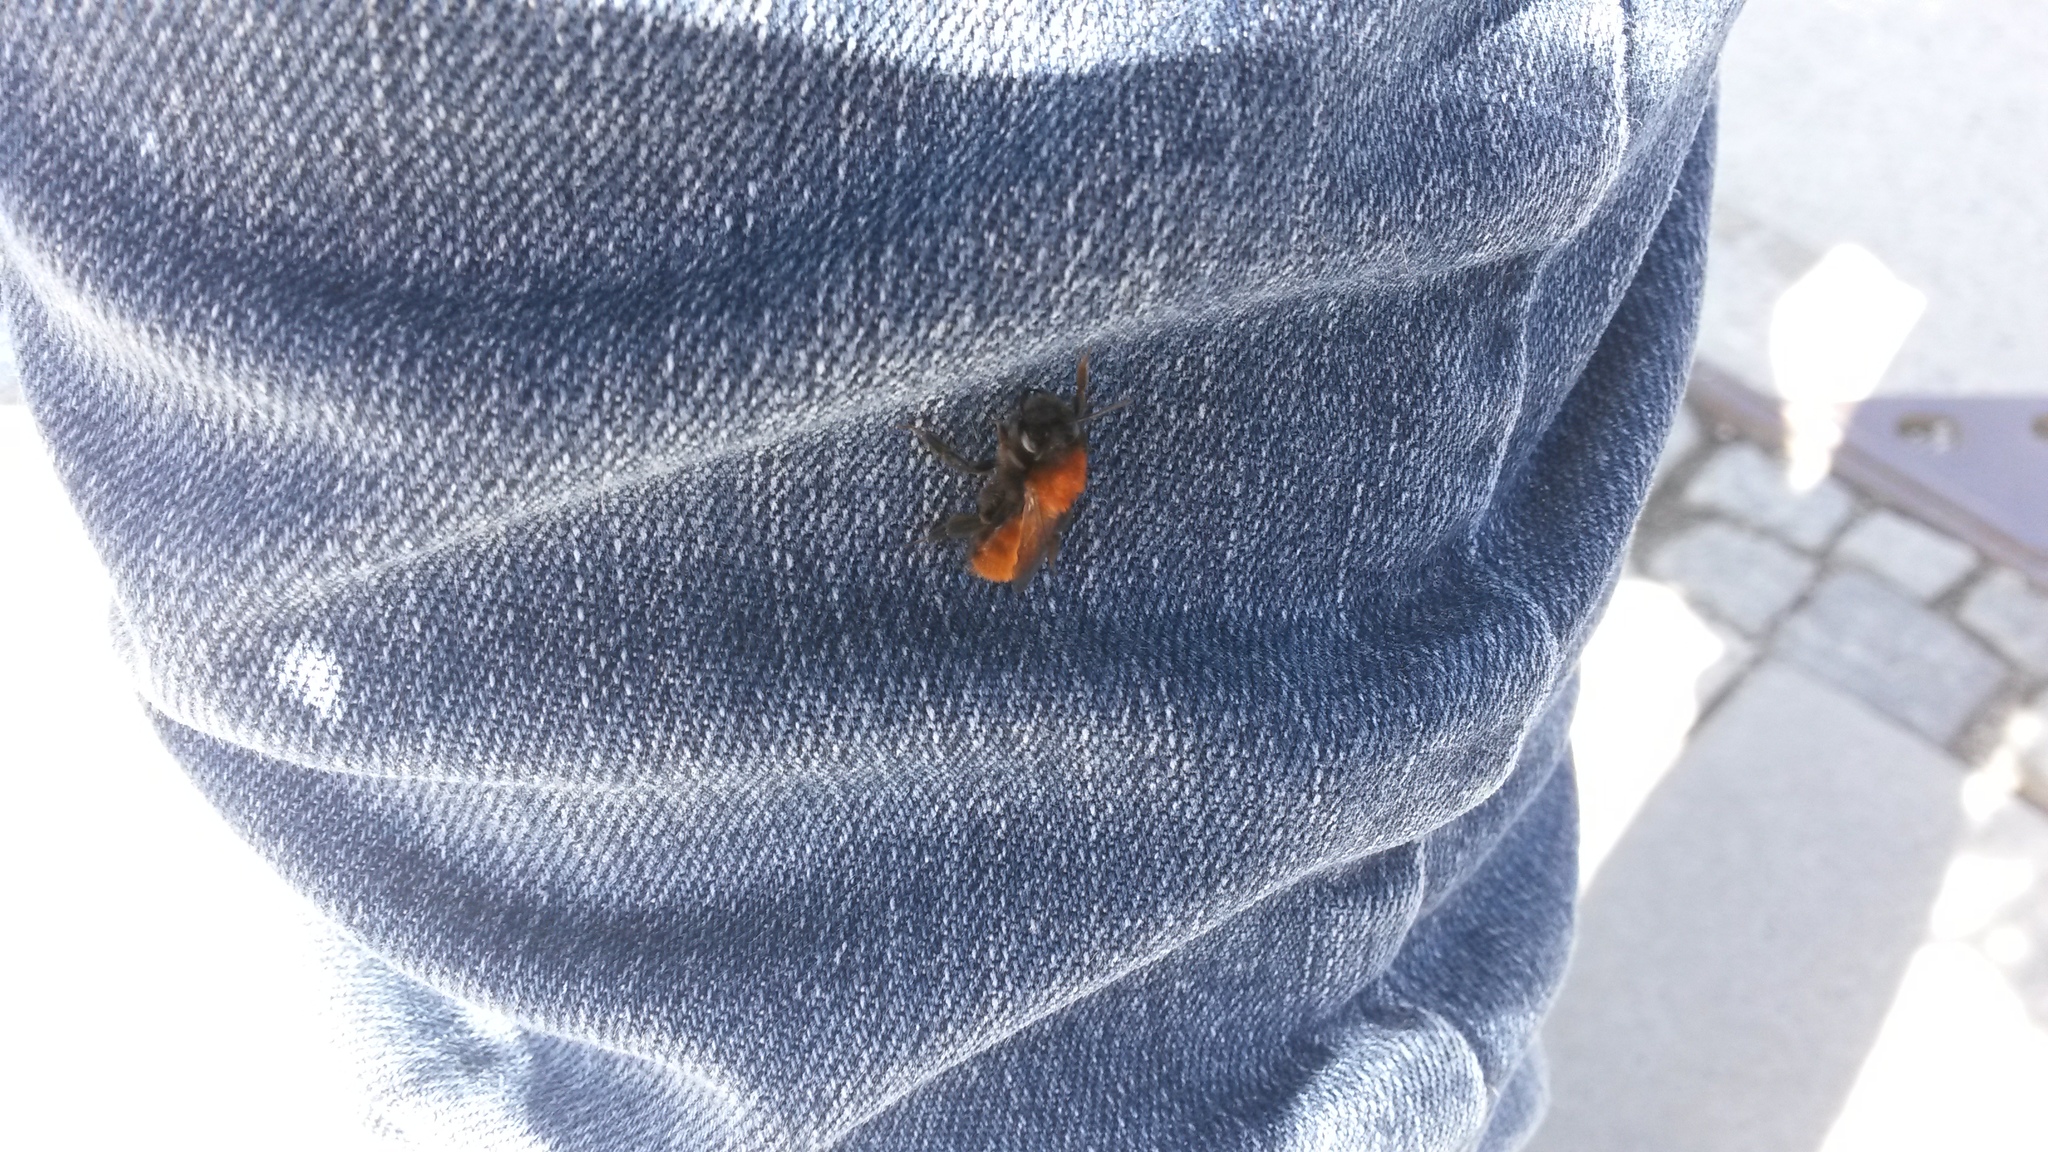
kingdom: Animalia
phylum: Arthropoda
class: Insecta
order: Hymenoptera
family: Andrenidae
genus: Andrena
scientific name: Andrena fulva
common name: Tawny mining bee
